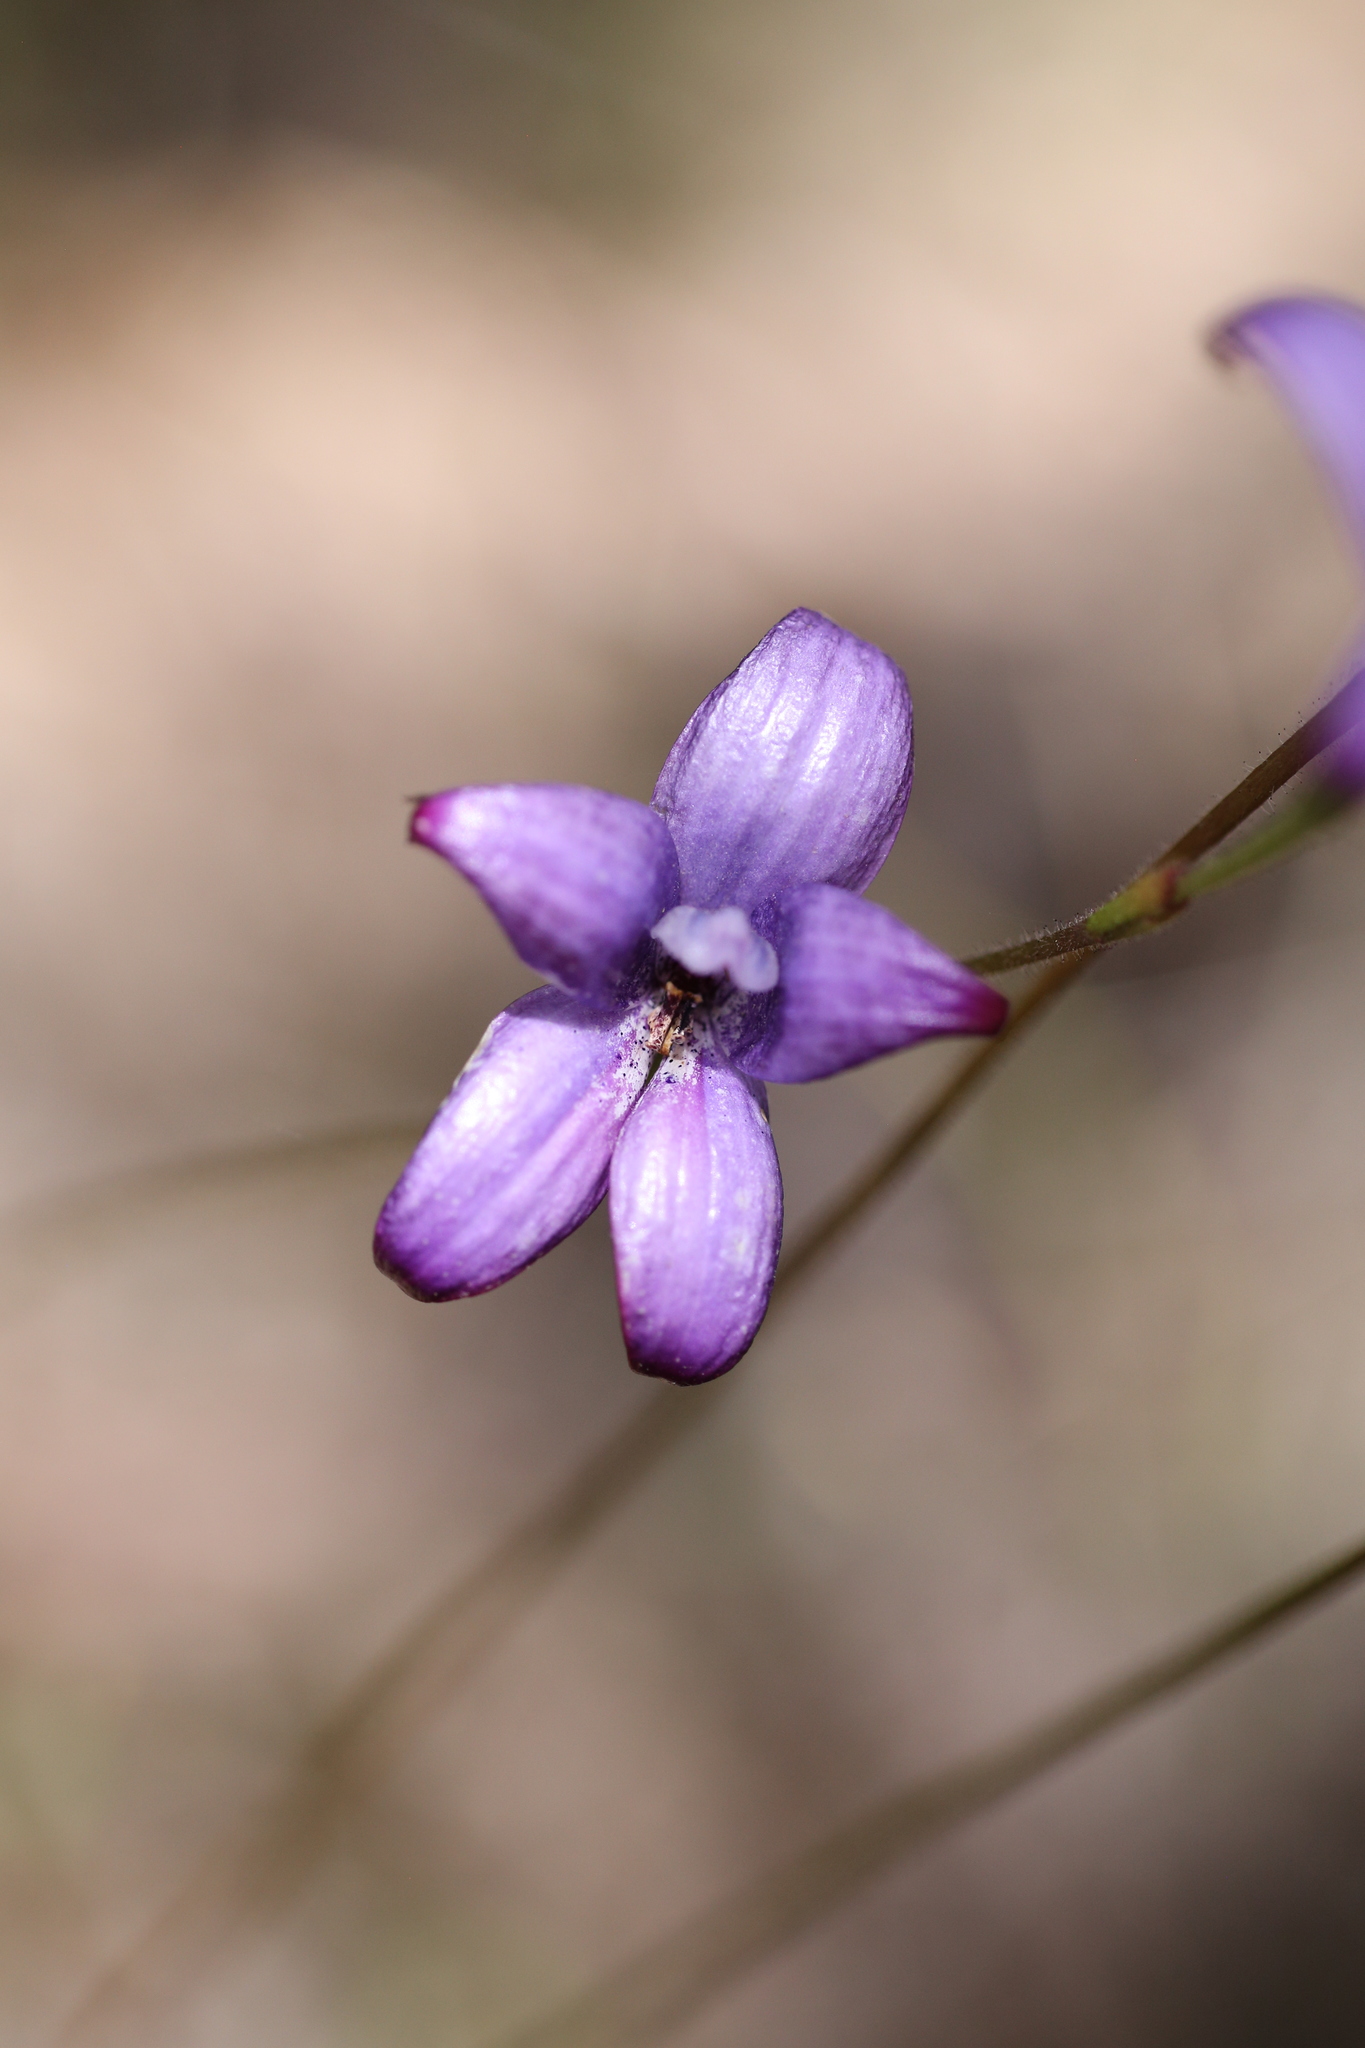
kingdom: Plantae
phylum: Tracheophyta
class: Liliopsida
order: Asparagales
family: Orchidaceae
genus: Caladenia
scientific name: Caladenia brunonis
